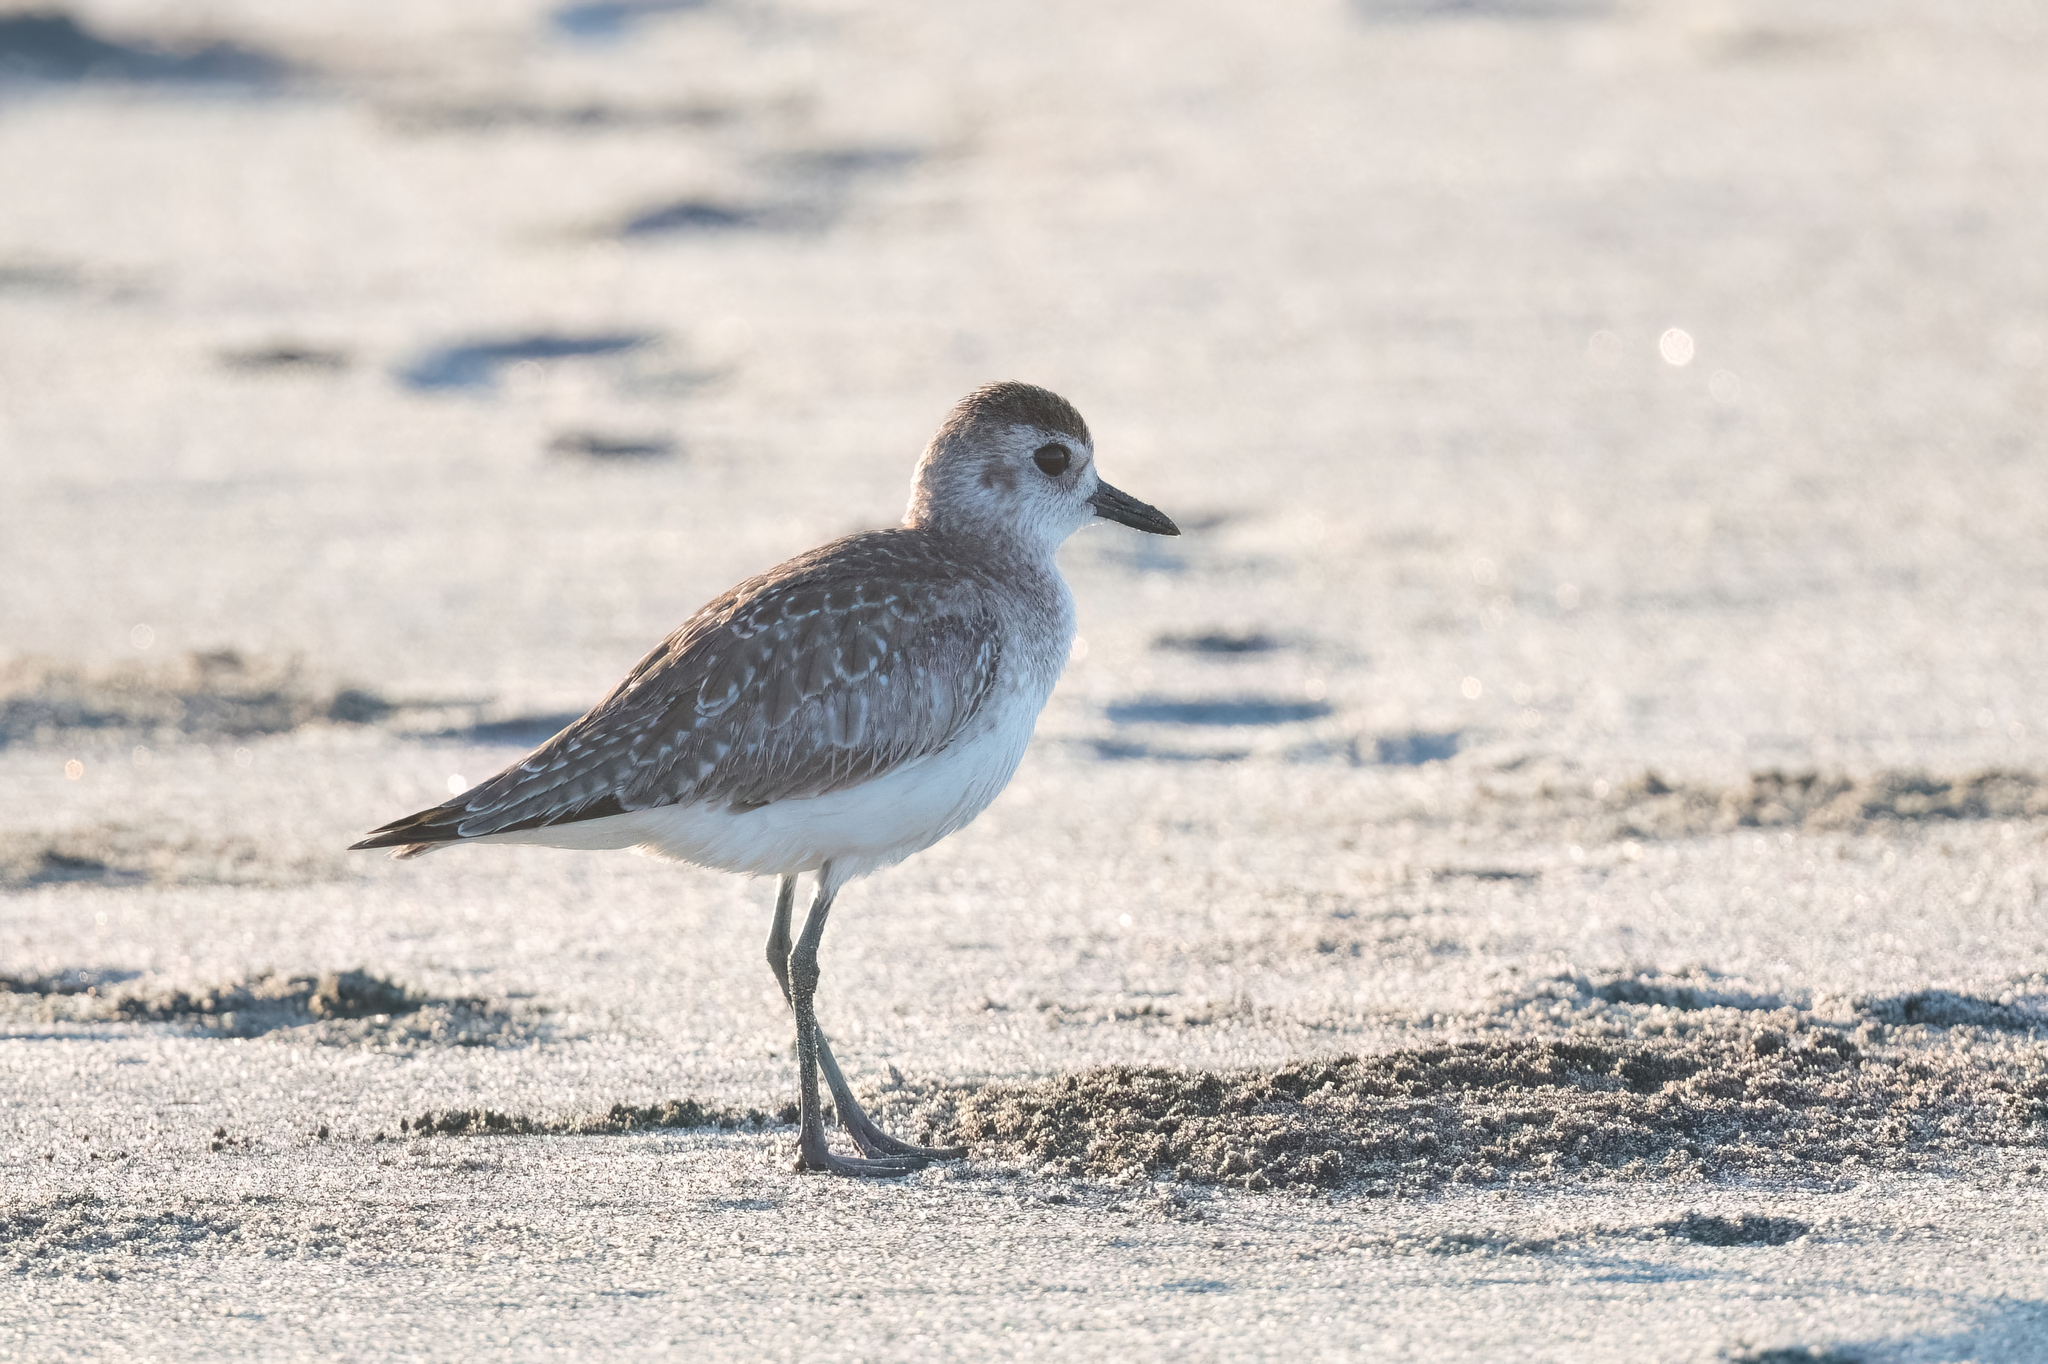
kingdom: Animalia
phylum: Chordata
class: Aves
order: Charadriiformes
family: Charadriidae
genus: Pluvialis
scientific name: Pluvialis squatarola
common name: Grey plover
